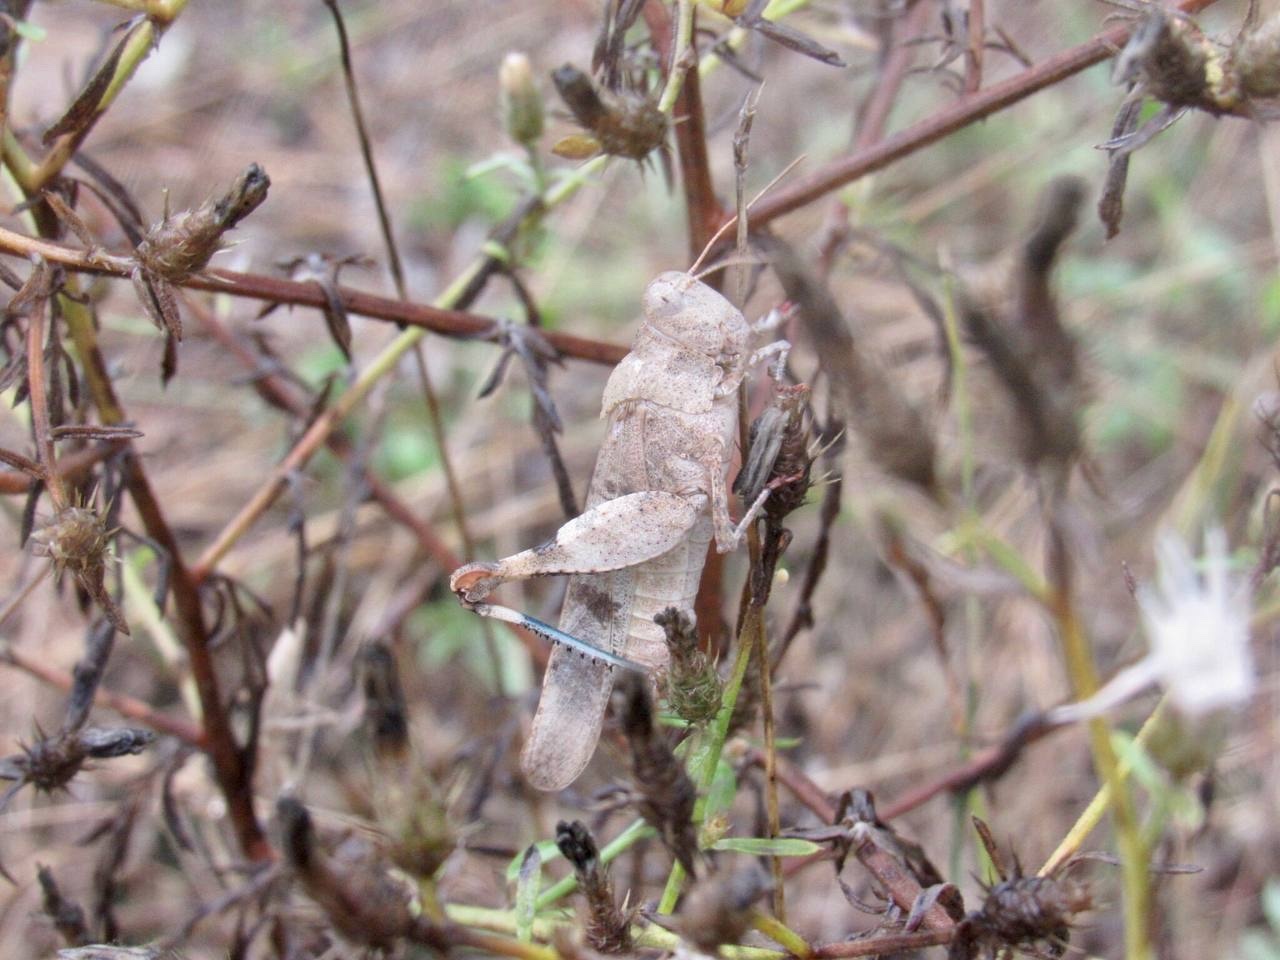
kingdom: Animalia
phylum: Arthropoda
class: Insecta
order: Orthoptera
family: Acrididae
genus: Oedipoda
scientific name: Oedipoda caerulescens
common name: Blue-winged grasshopper
